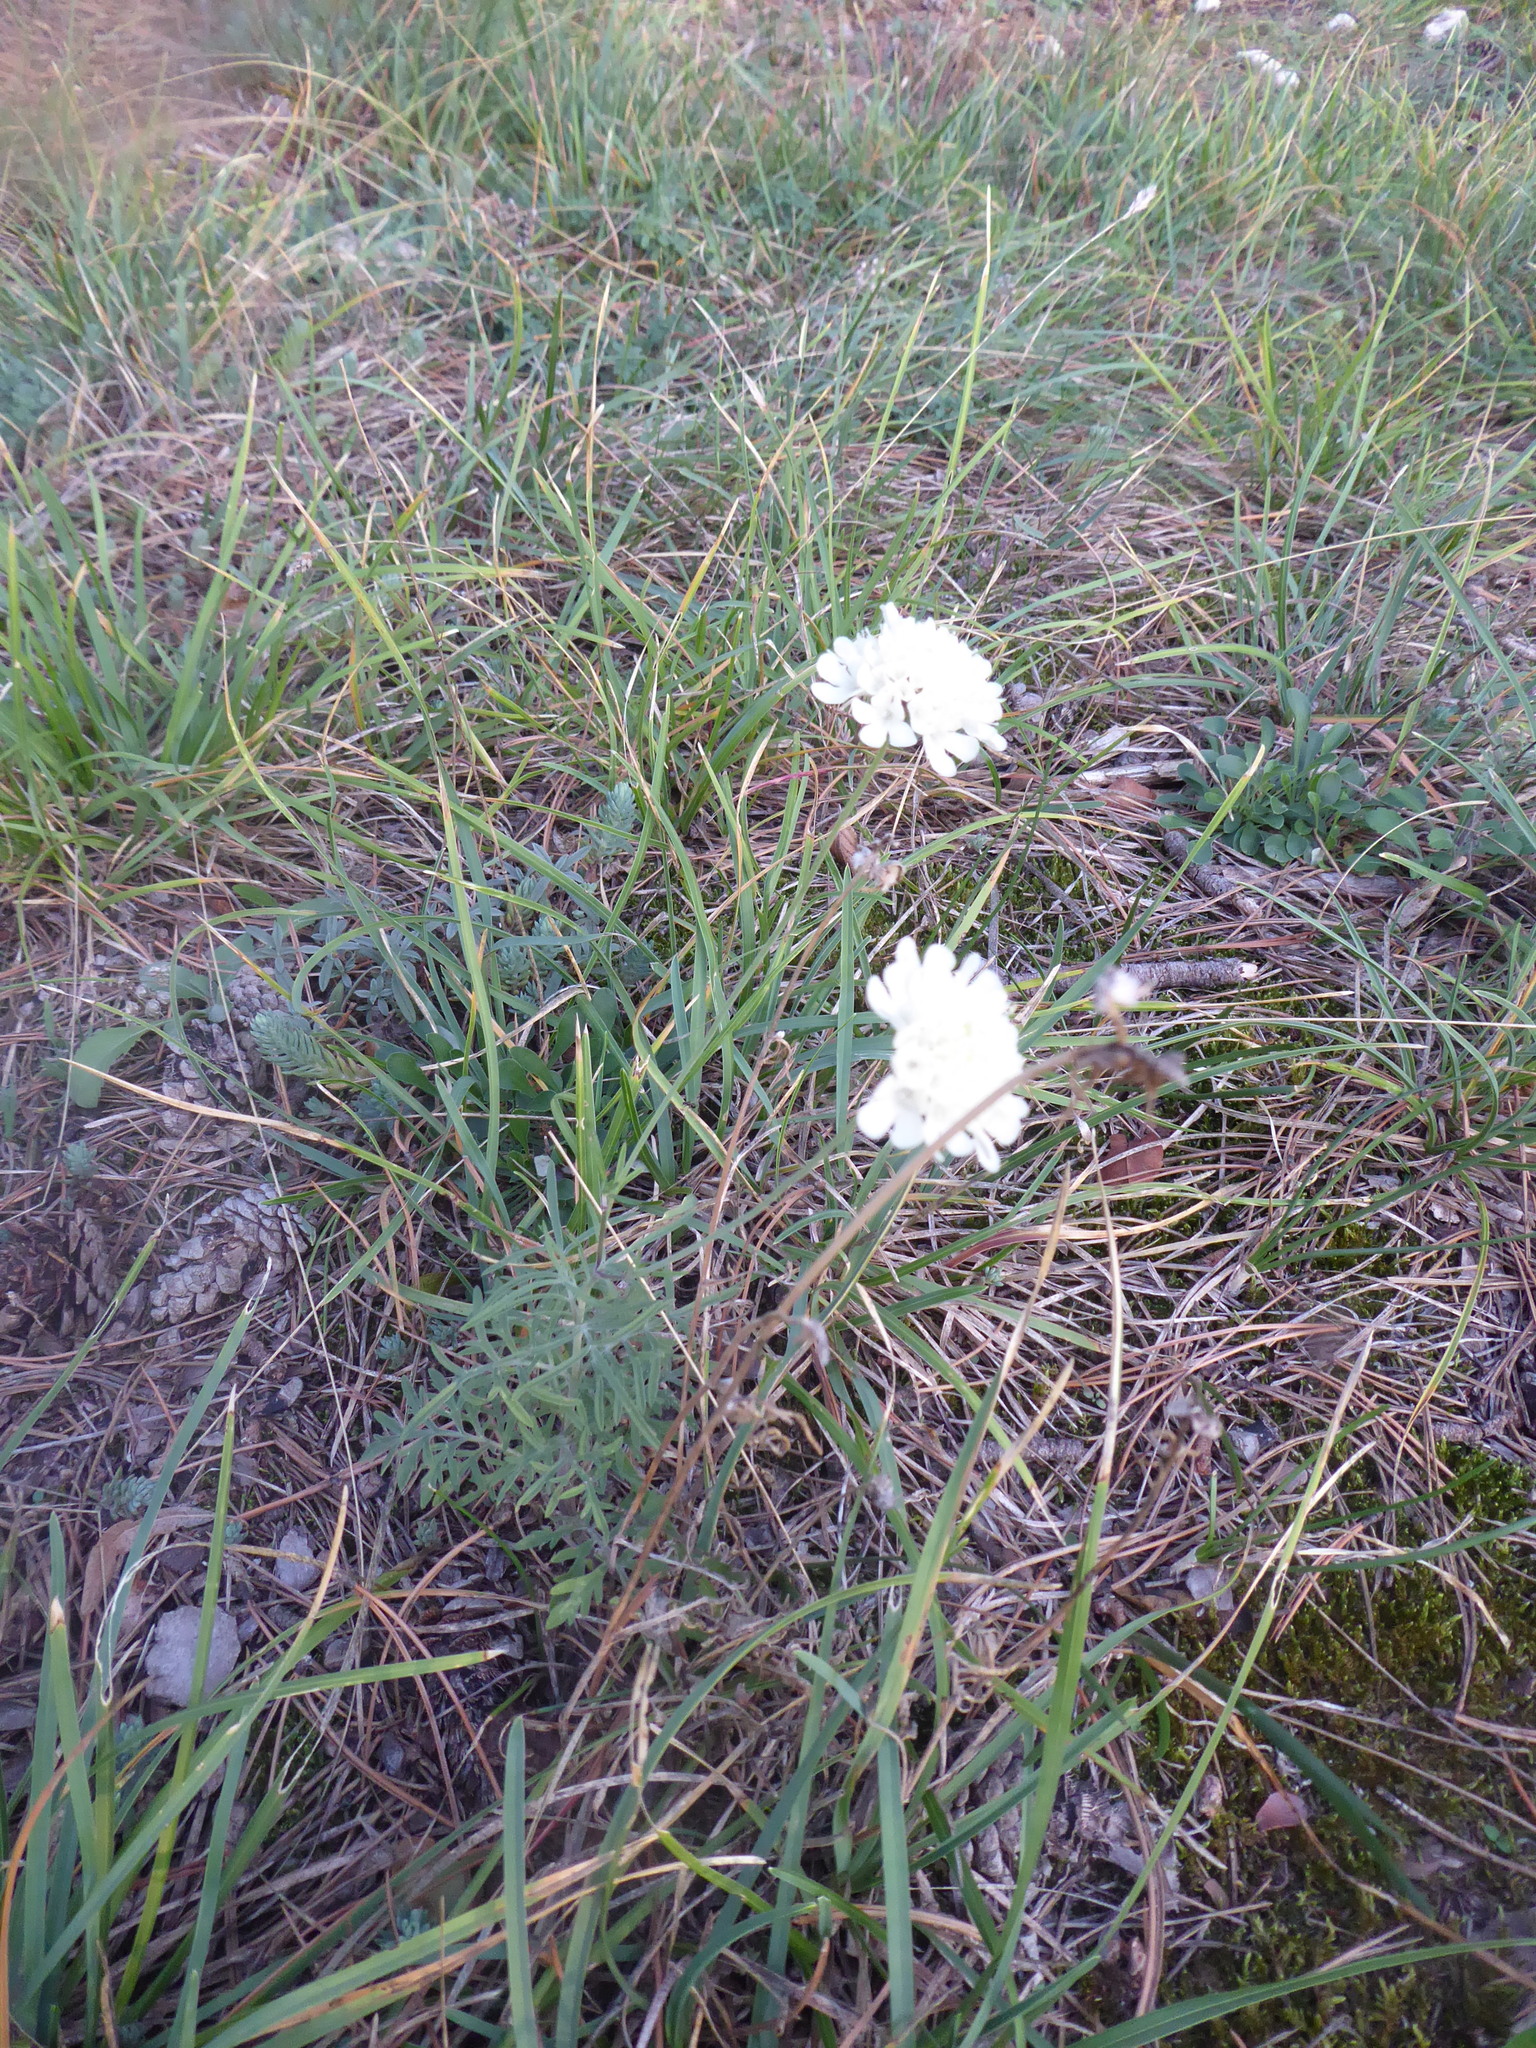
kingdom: Plantae
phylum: Tracheophyta
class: Magnoliopsida
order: Dipsacales
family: Caprifoliaceae
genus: Scabiosa
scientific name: Scabiosa ochroleuca
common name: Cream pincushions
